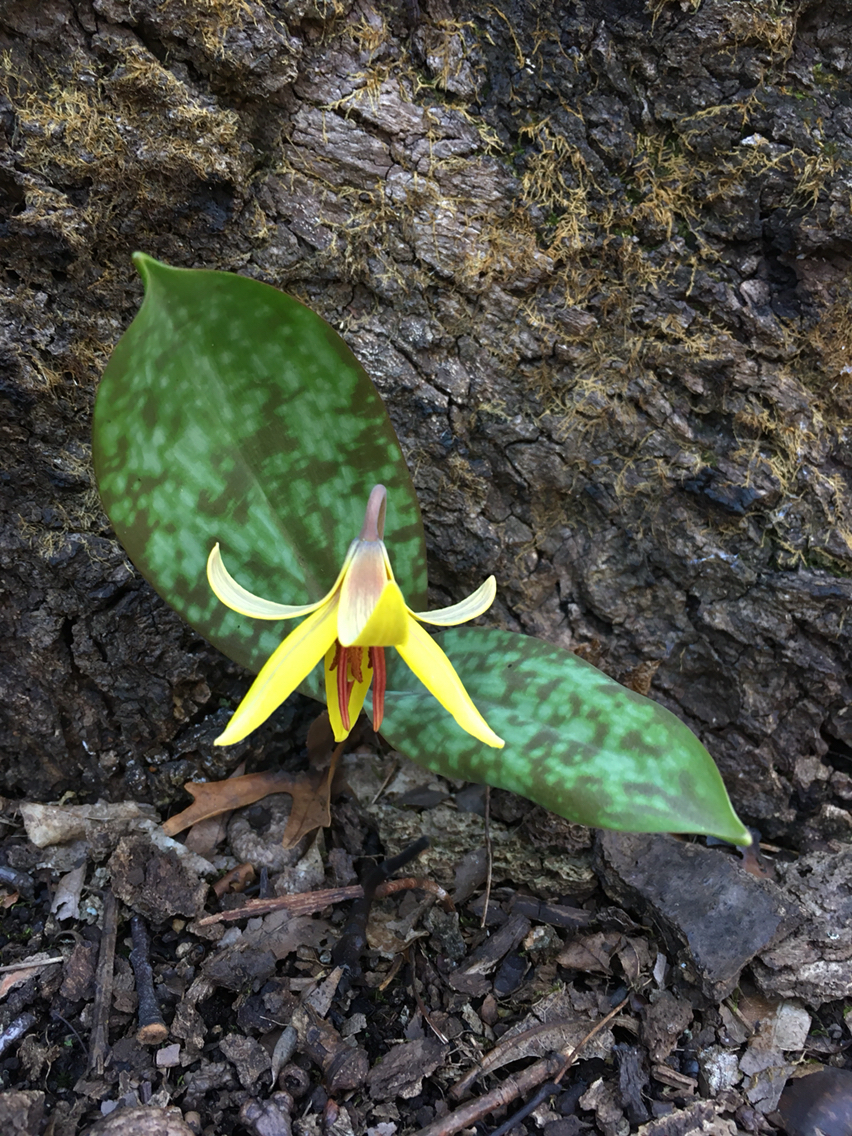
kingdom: Plantae
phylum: Tracheophyta
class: Liliopsida
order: Liliales
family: Liliaceae
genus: Erythronium
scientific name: Erythronium americanum
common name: Yellow adder's-tongue
